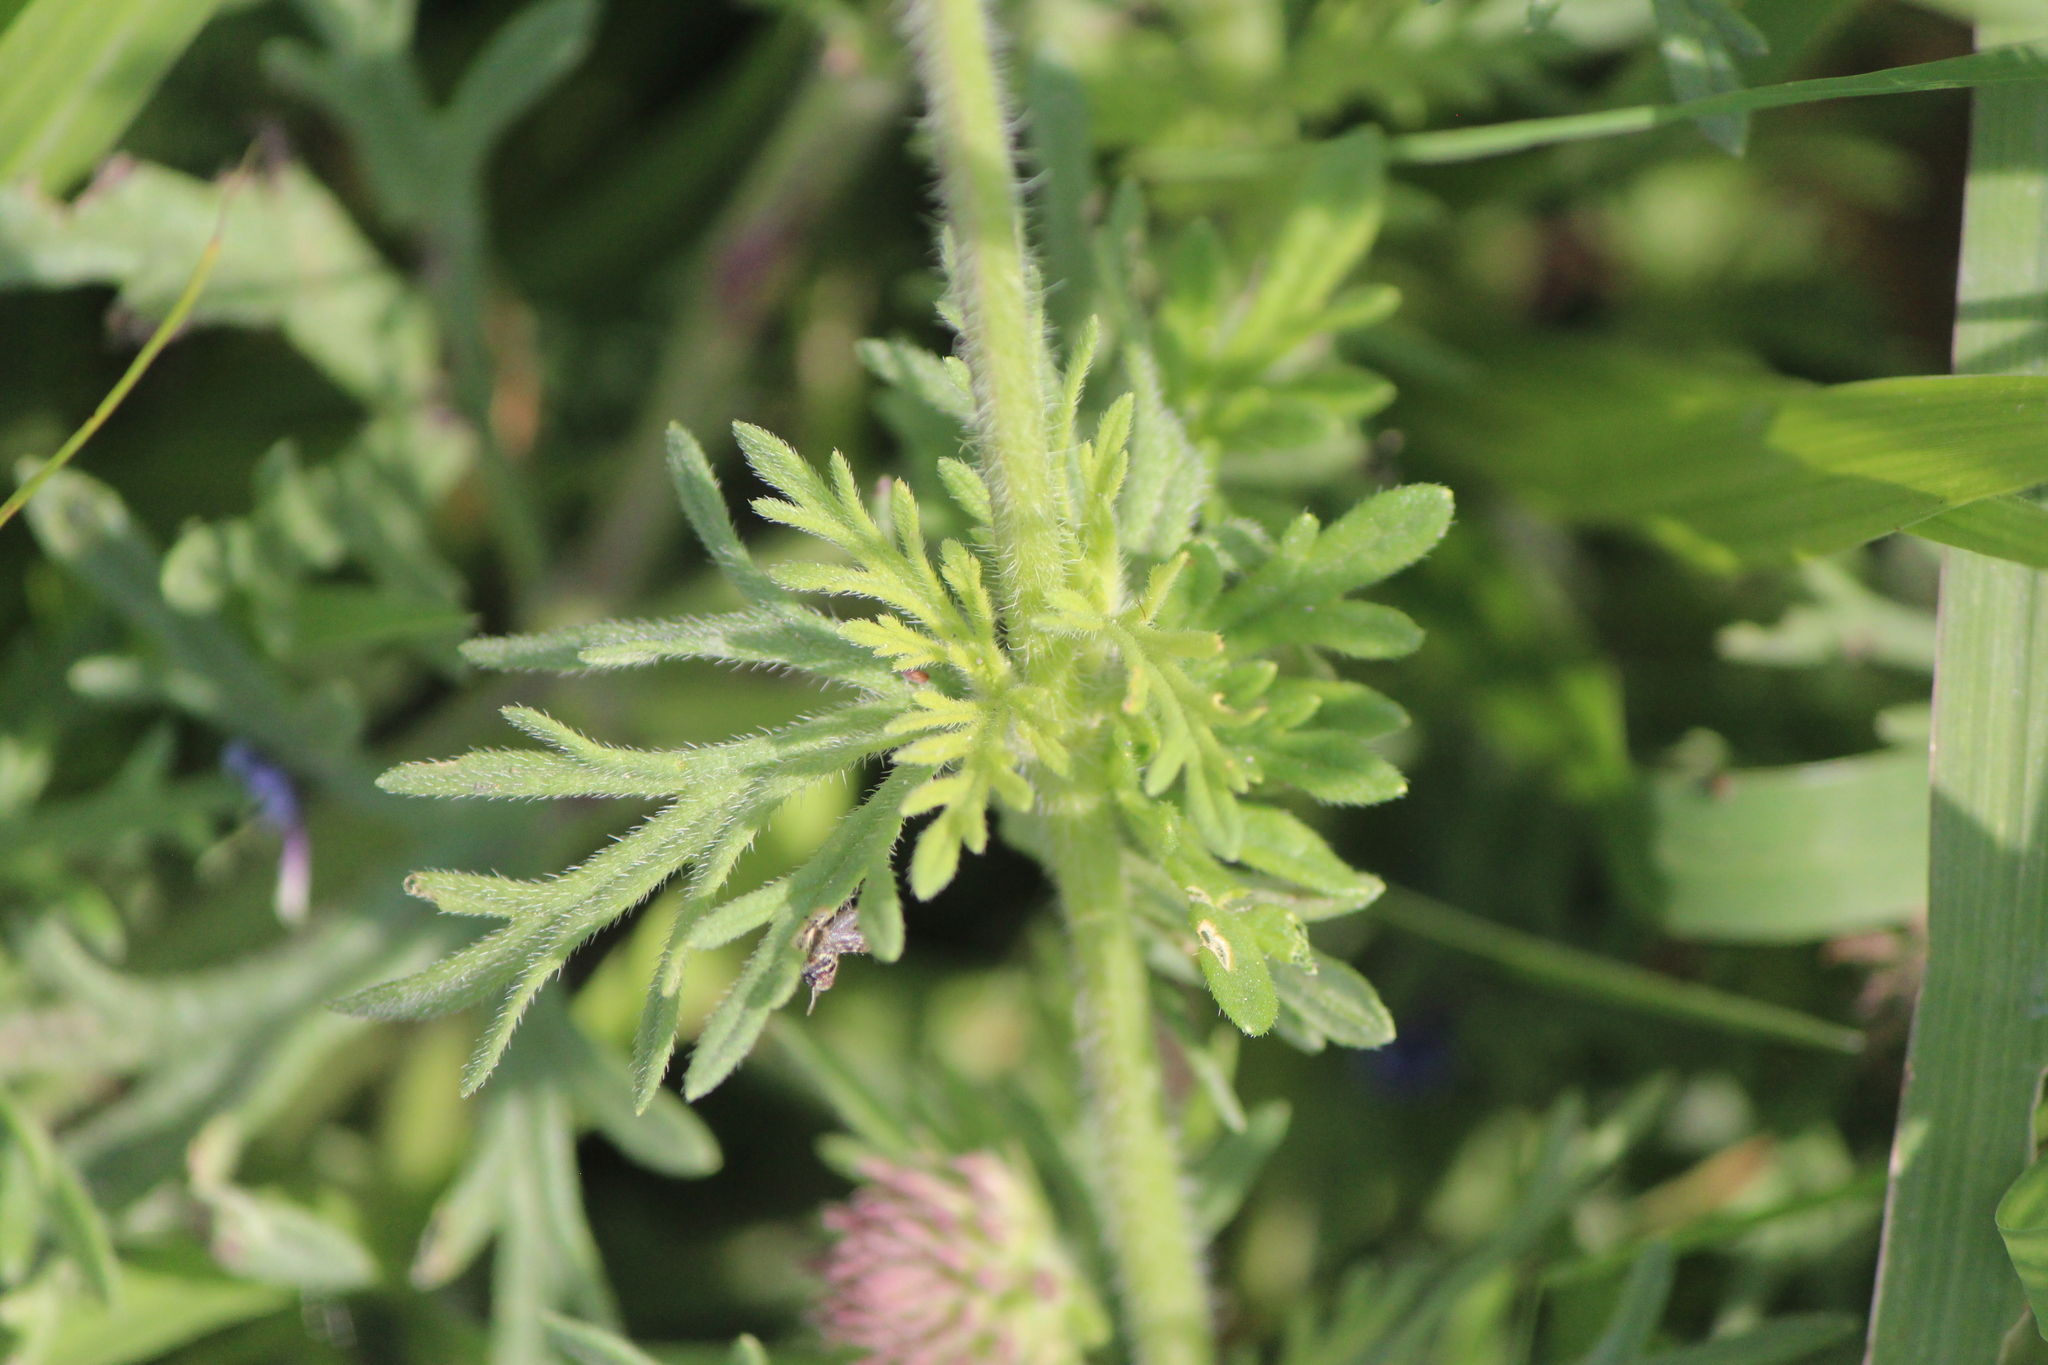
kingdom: Plantae
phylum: Tracheophyta
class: Magnoliopsida
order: Lamiales
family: Verbenaceae
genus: Verbena
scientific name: Verbena bipinnatifida
